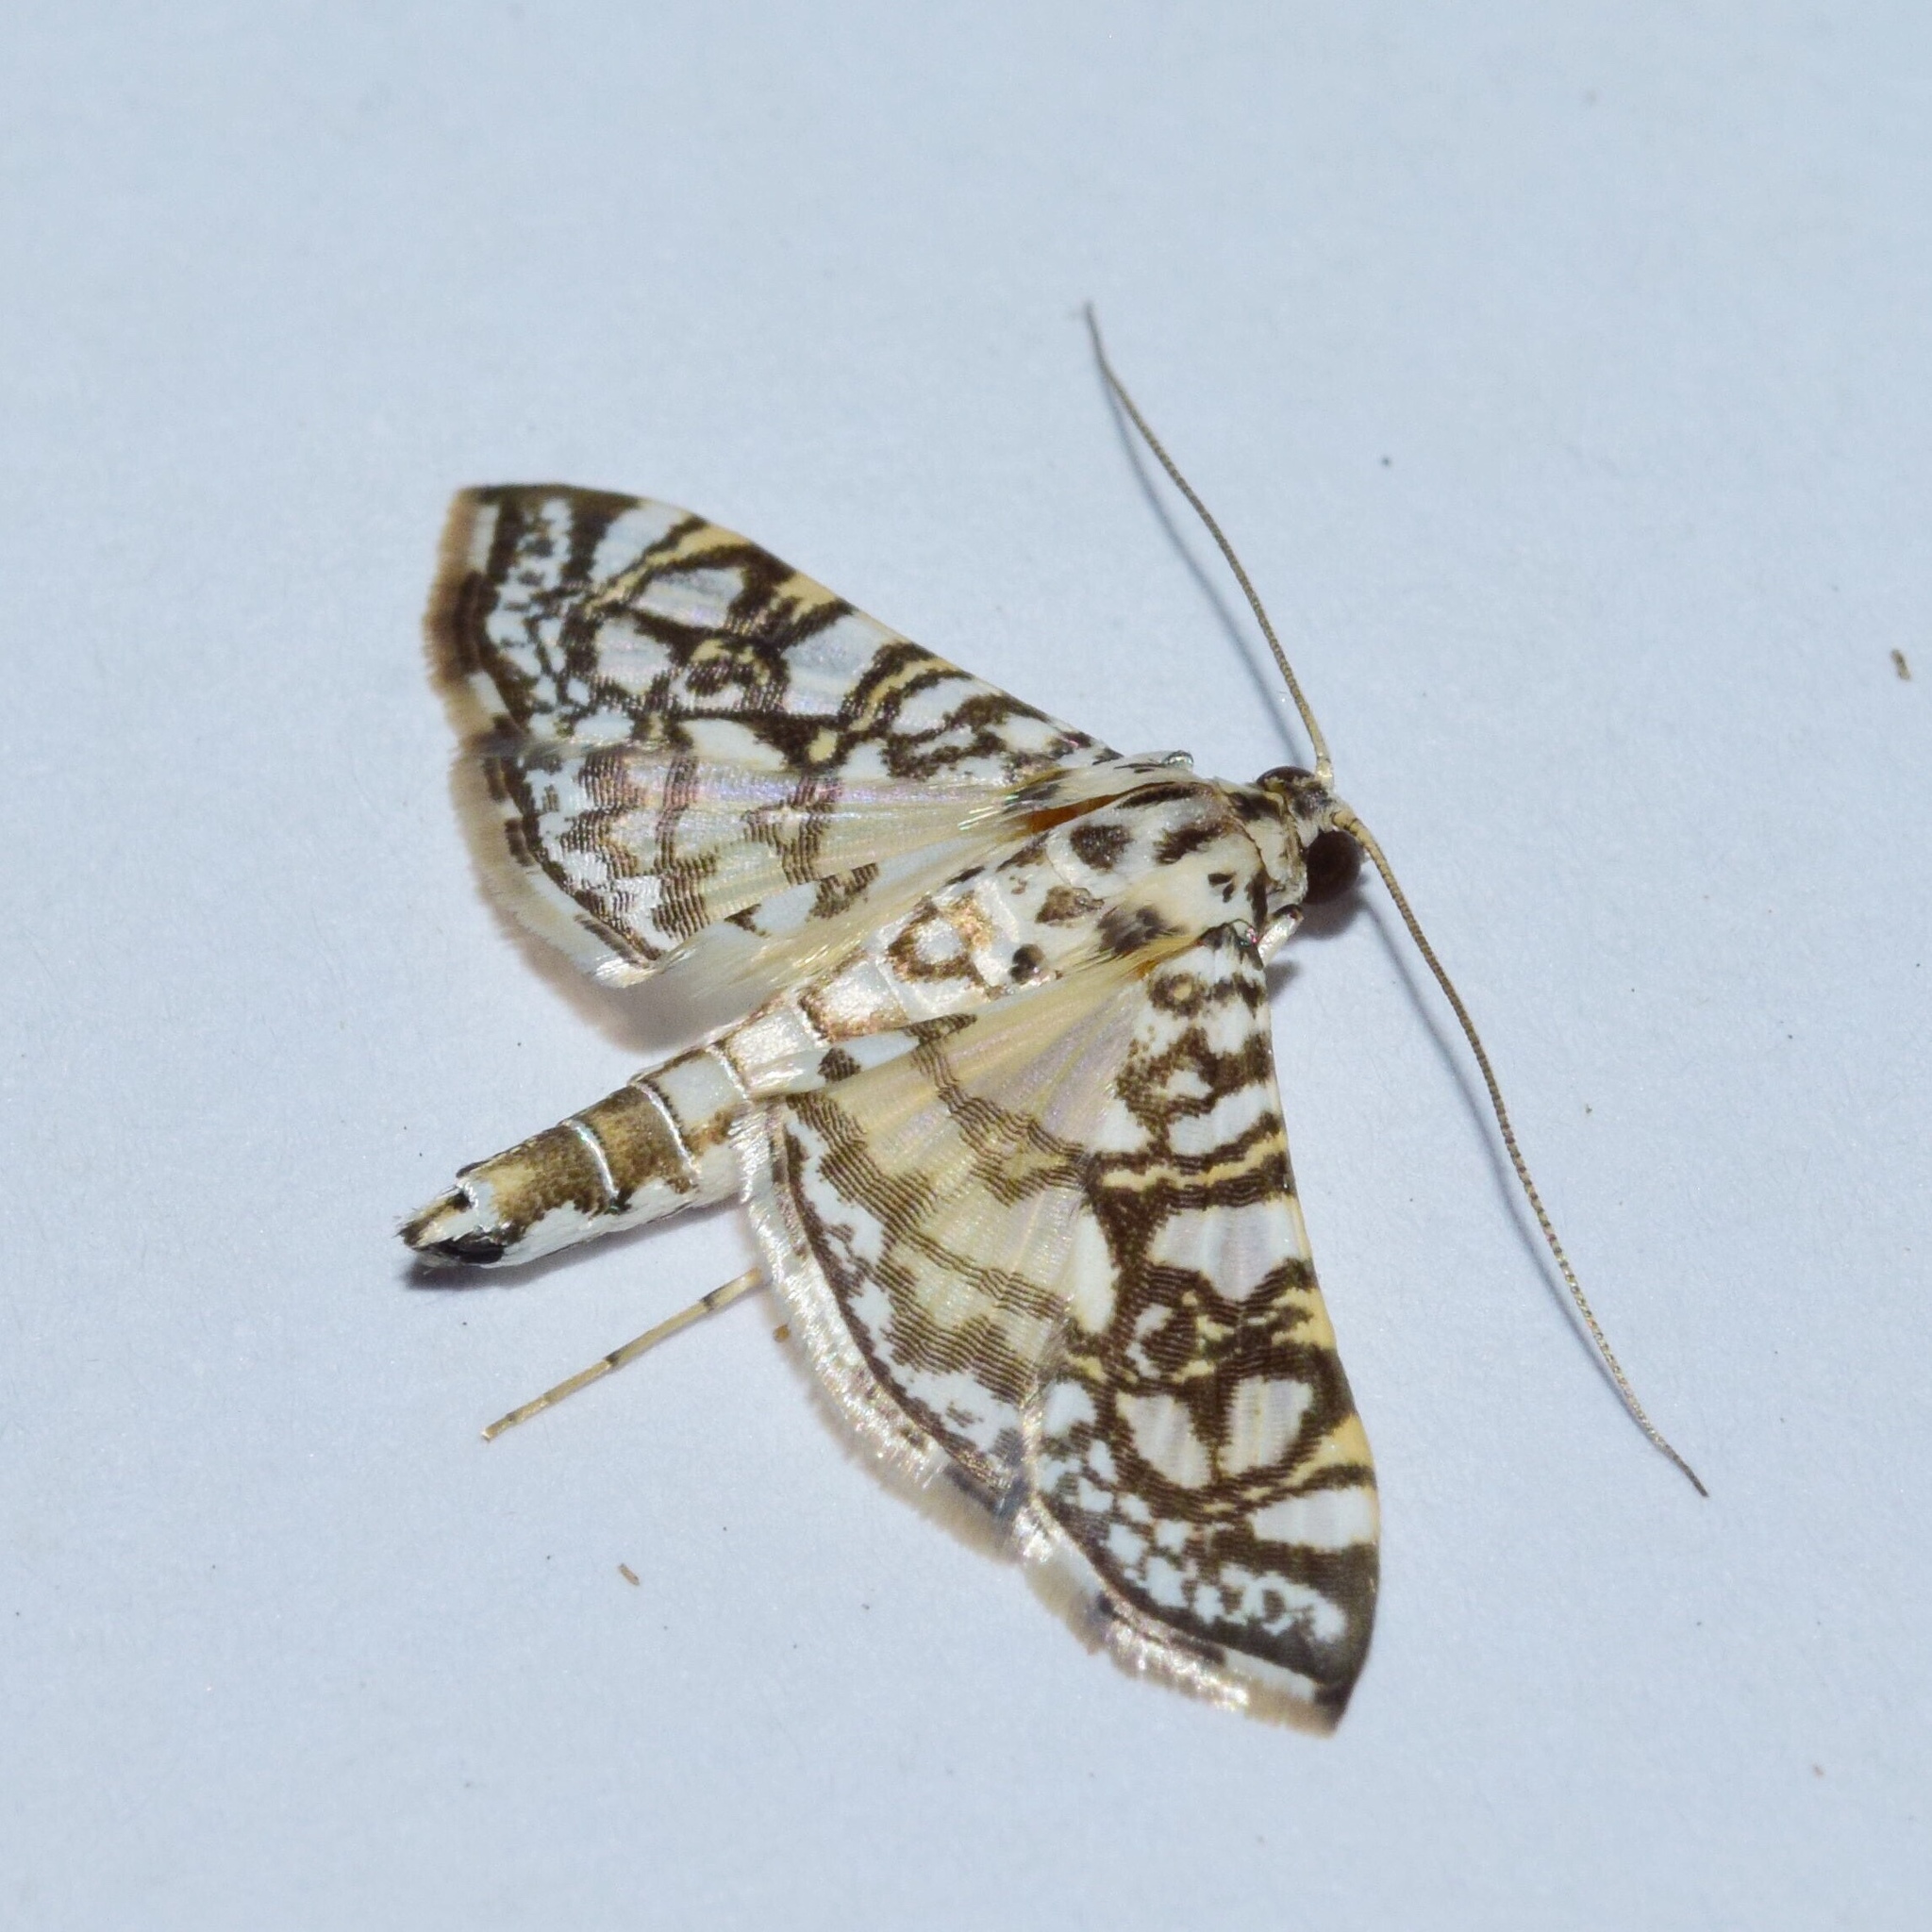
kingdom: Animalia
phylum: Arthropoda
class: Insecta
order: Lepidoptera
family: Crambidae
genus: Glyphodes
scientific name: Glyphodes onychinalis
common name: Swan plant moth
